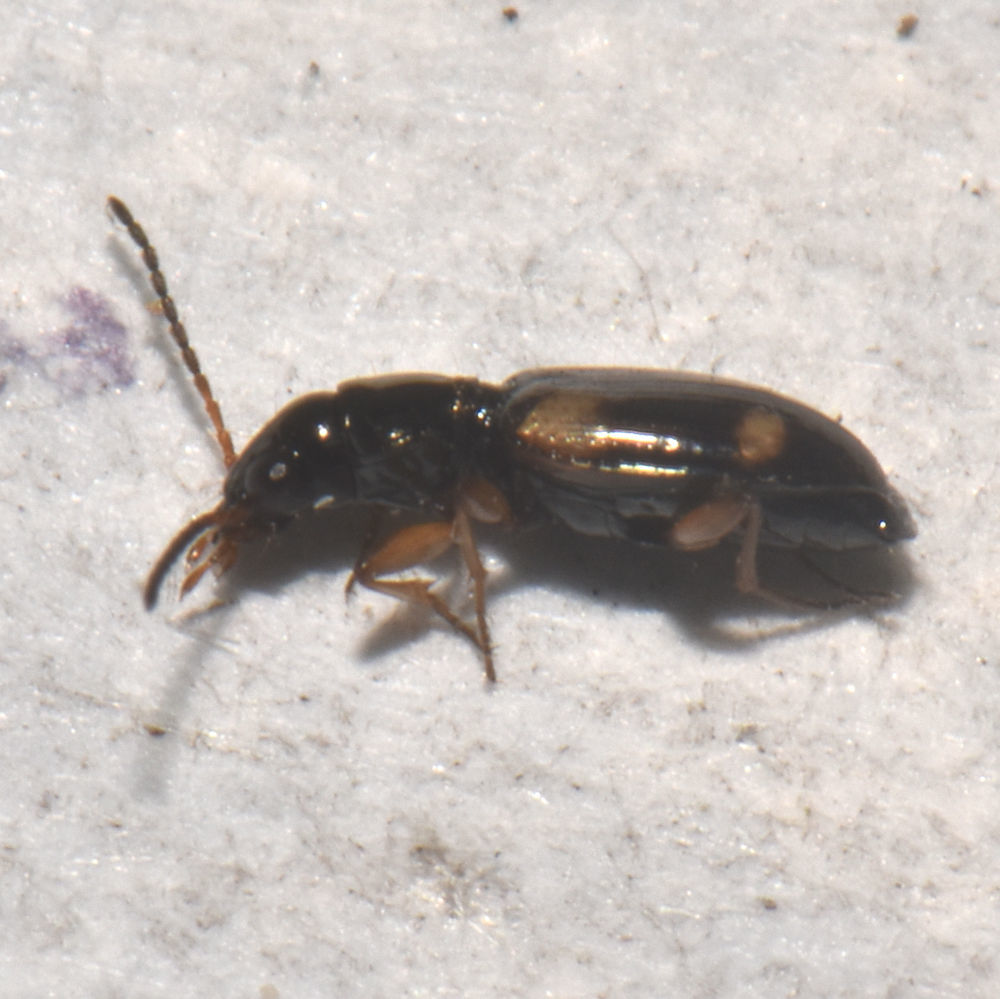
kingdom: Animalia
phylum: Arthropoda
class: Insecta
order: Coleoptera
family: Carabidae
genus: Bembidion
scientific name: Bembidion quadrimaculatum
